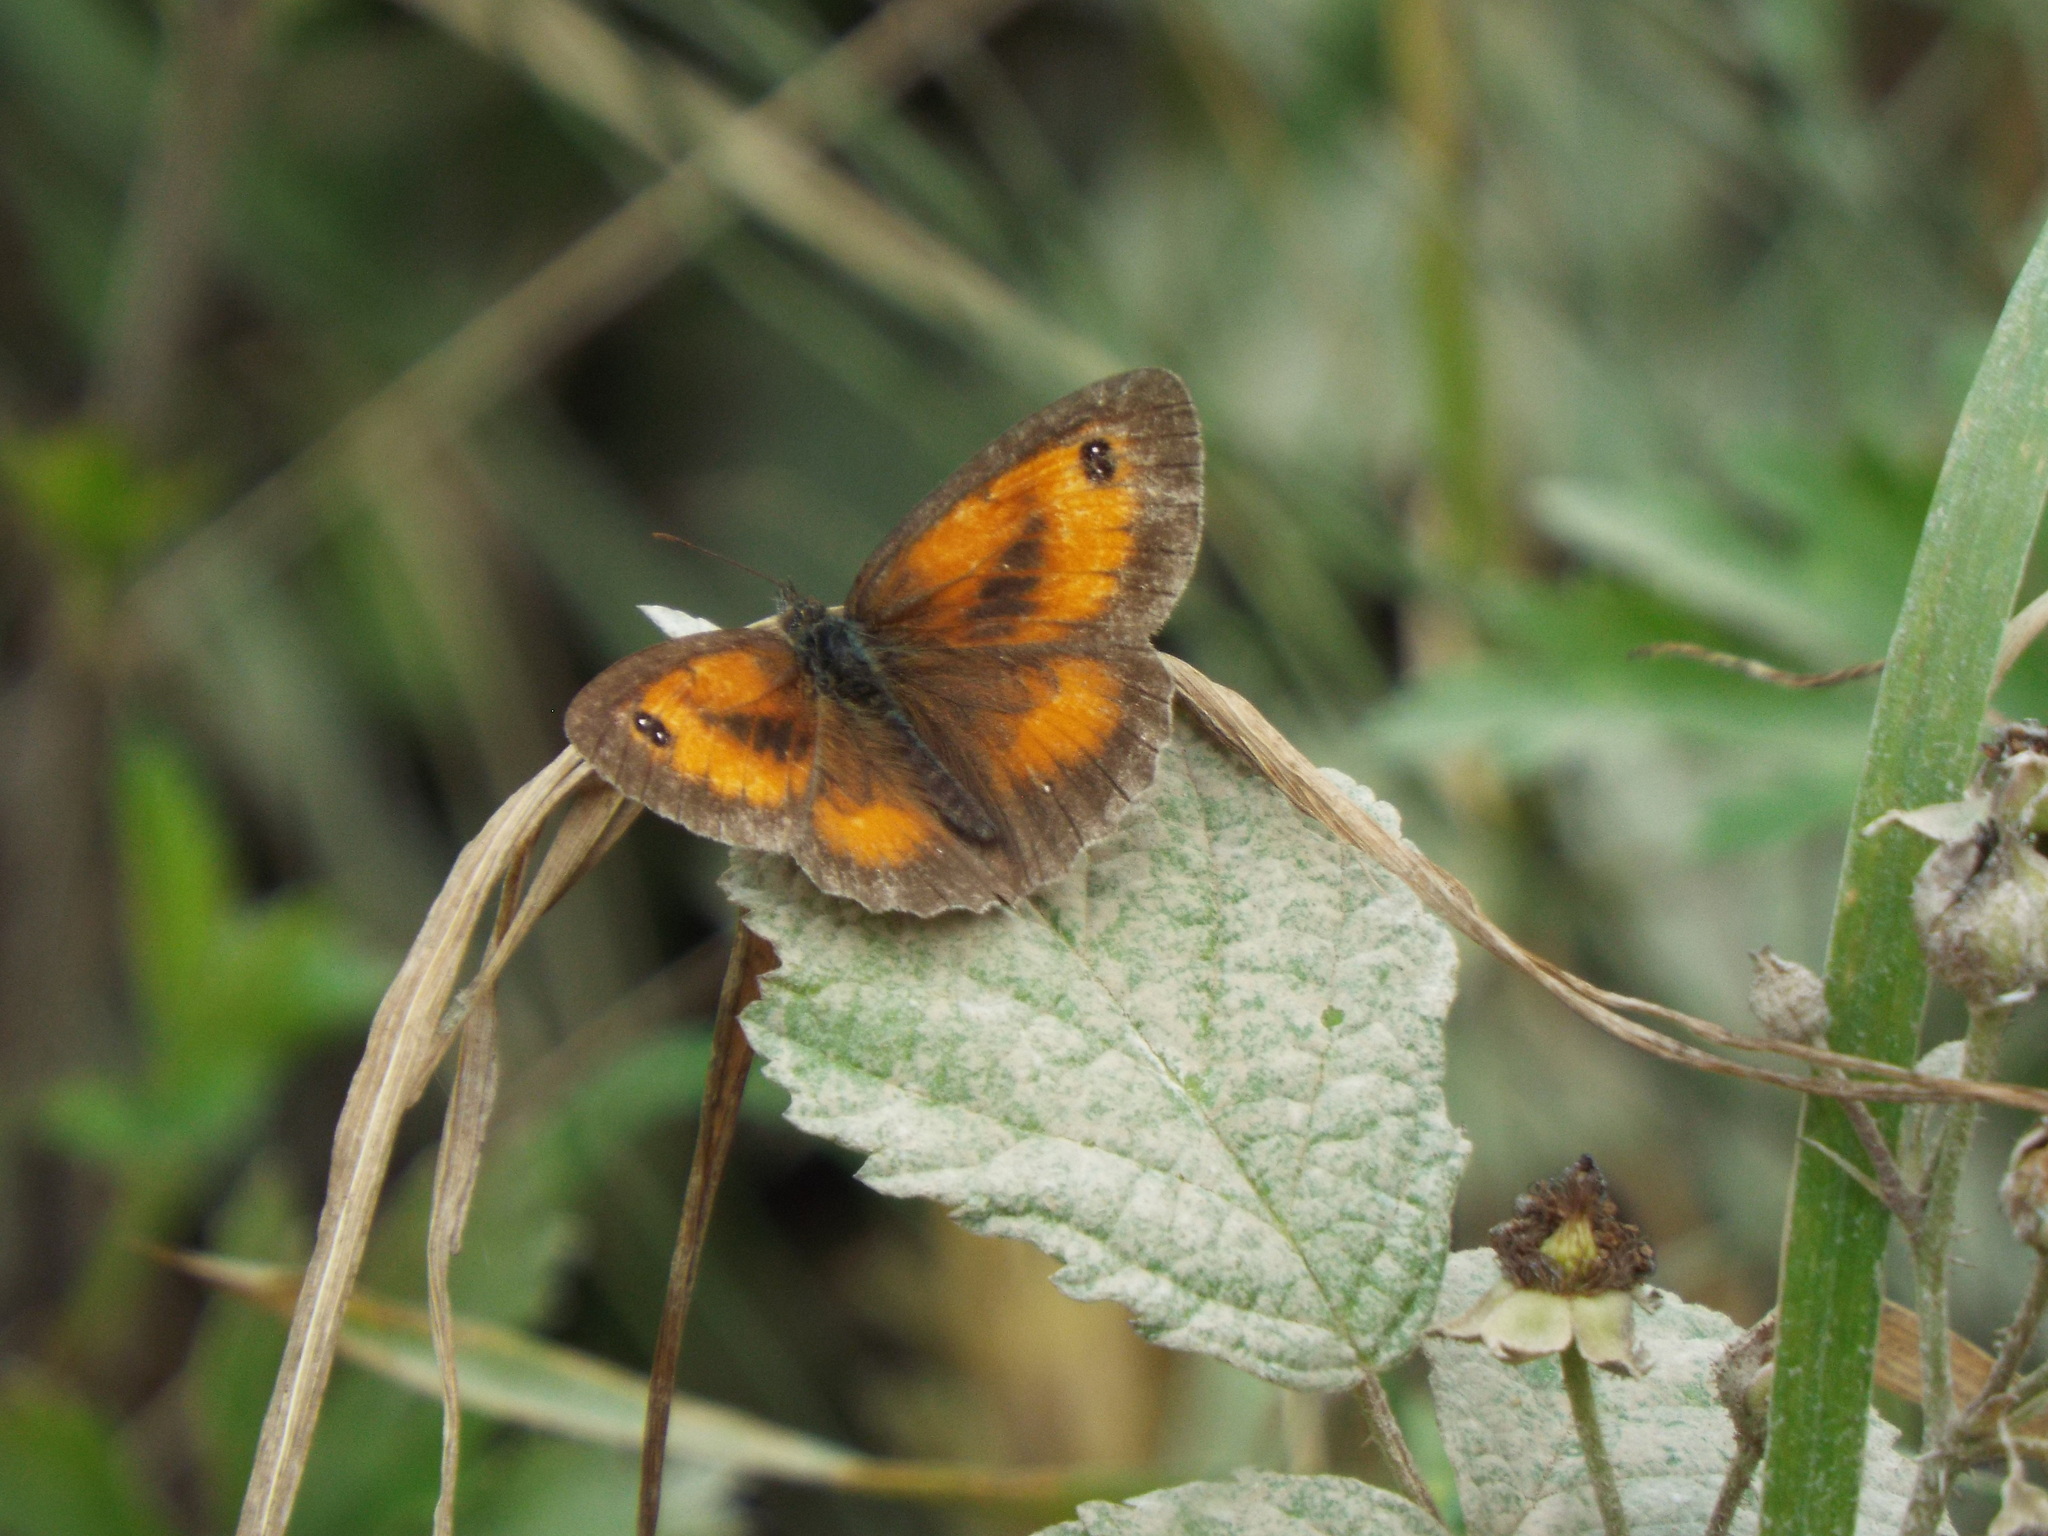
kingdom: Animalia
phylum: Arthropoda
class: Insecta
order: Lepidoptera
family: Nymphalidae
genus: Pyronia
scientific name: Pyronia tithonus
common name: Gatekeeper
